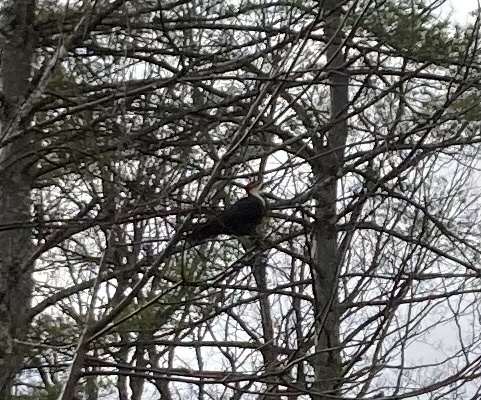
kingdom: Animalia
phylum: Chordata
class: Aves
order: Piciformes
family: Picidae
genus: Dryocopus
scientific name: Dryocopus pileatus
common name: Pileated woodpecker
